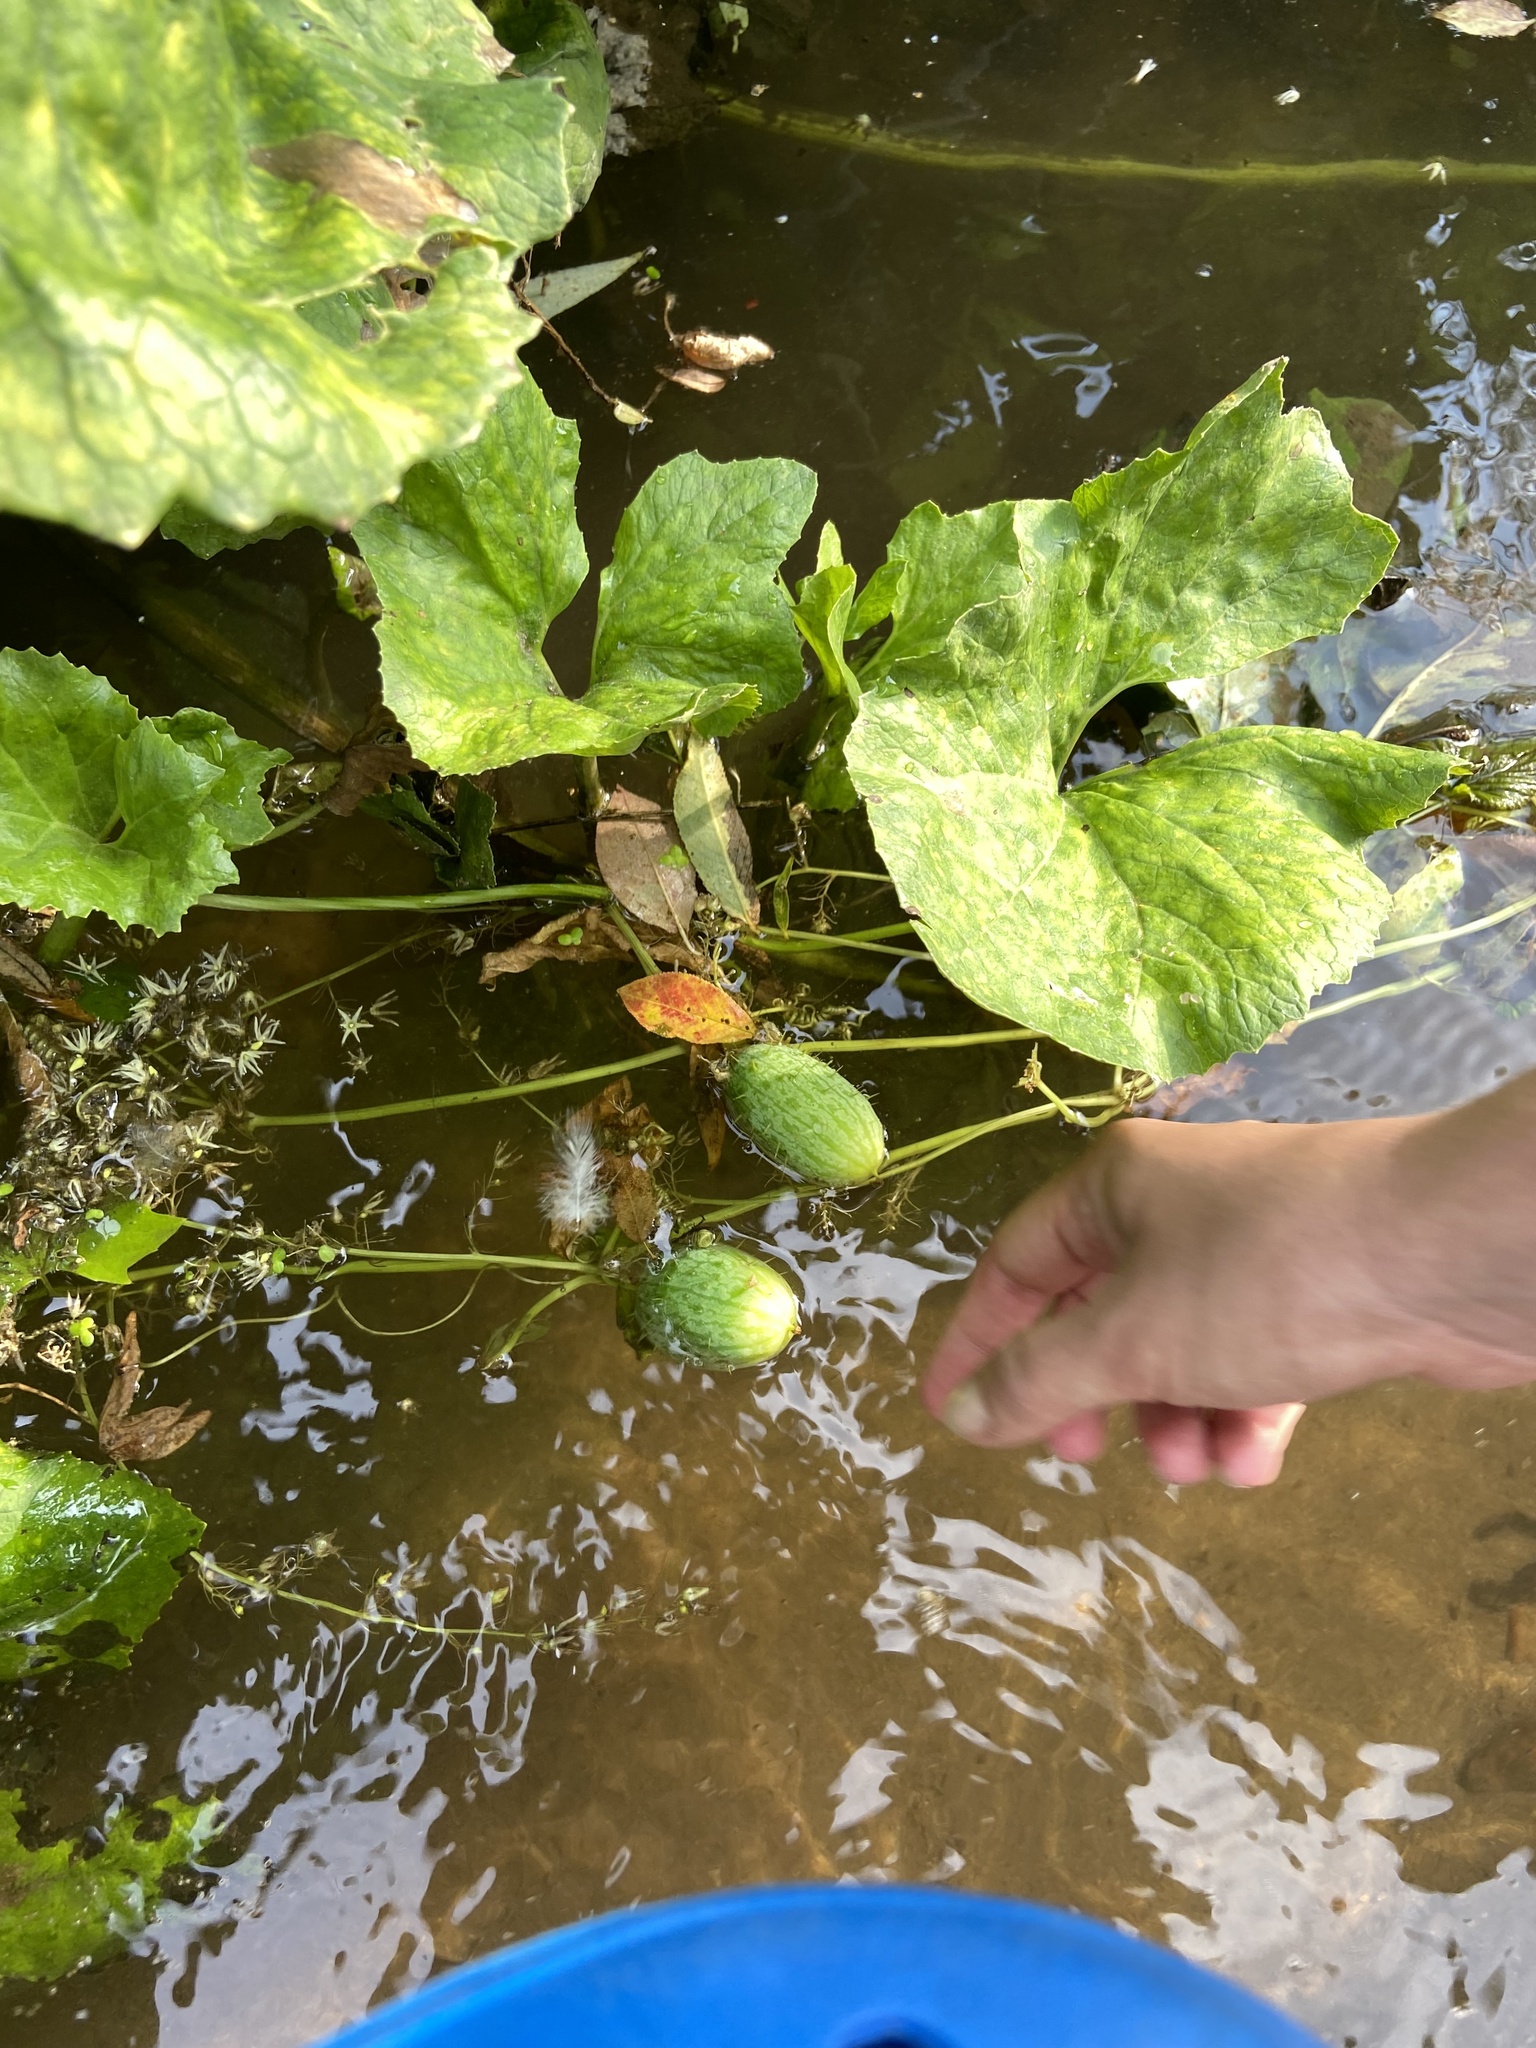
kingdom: Plantae
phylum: Tracheophyta
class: Magnoliopsida
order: Cucurbitales
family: Cucurbitaceae
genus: Echinocystis
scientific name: Echinocystis lobata
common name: Wild cucumber
